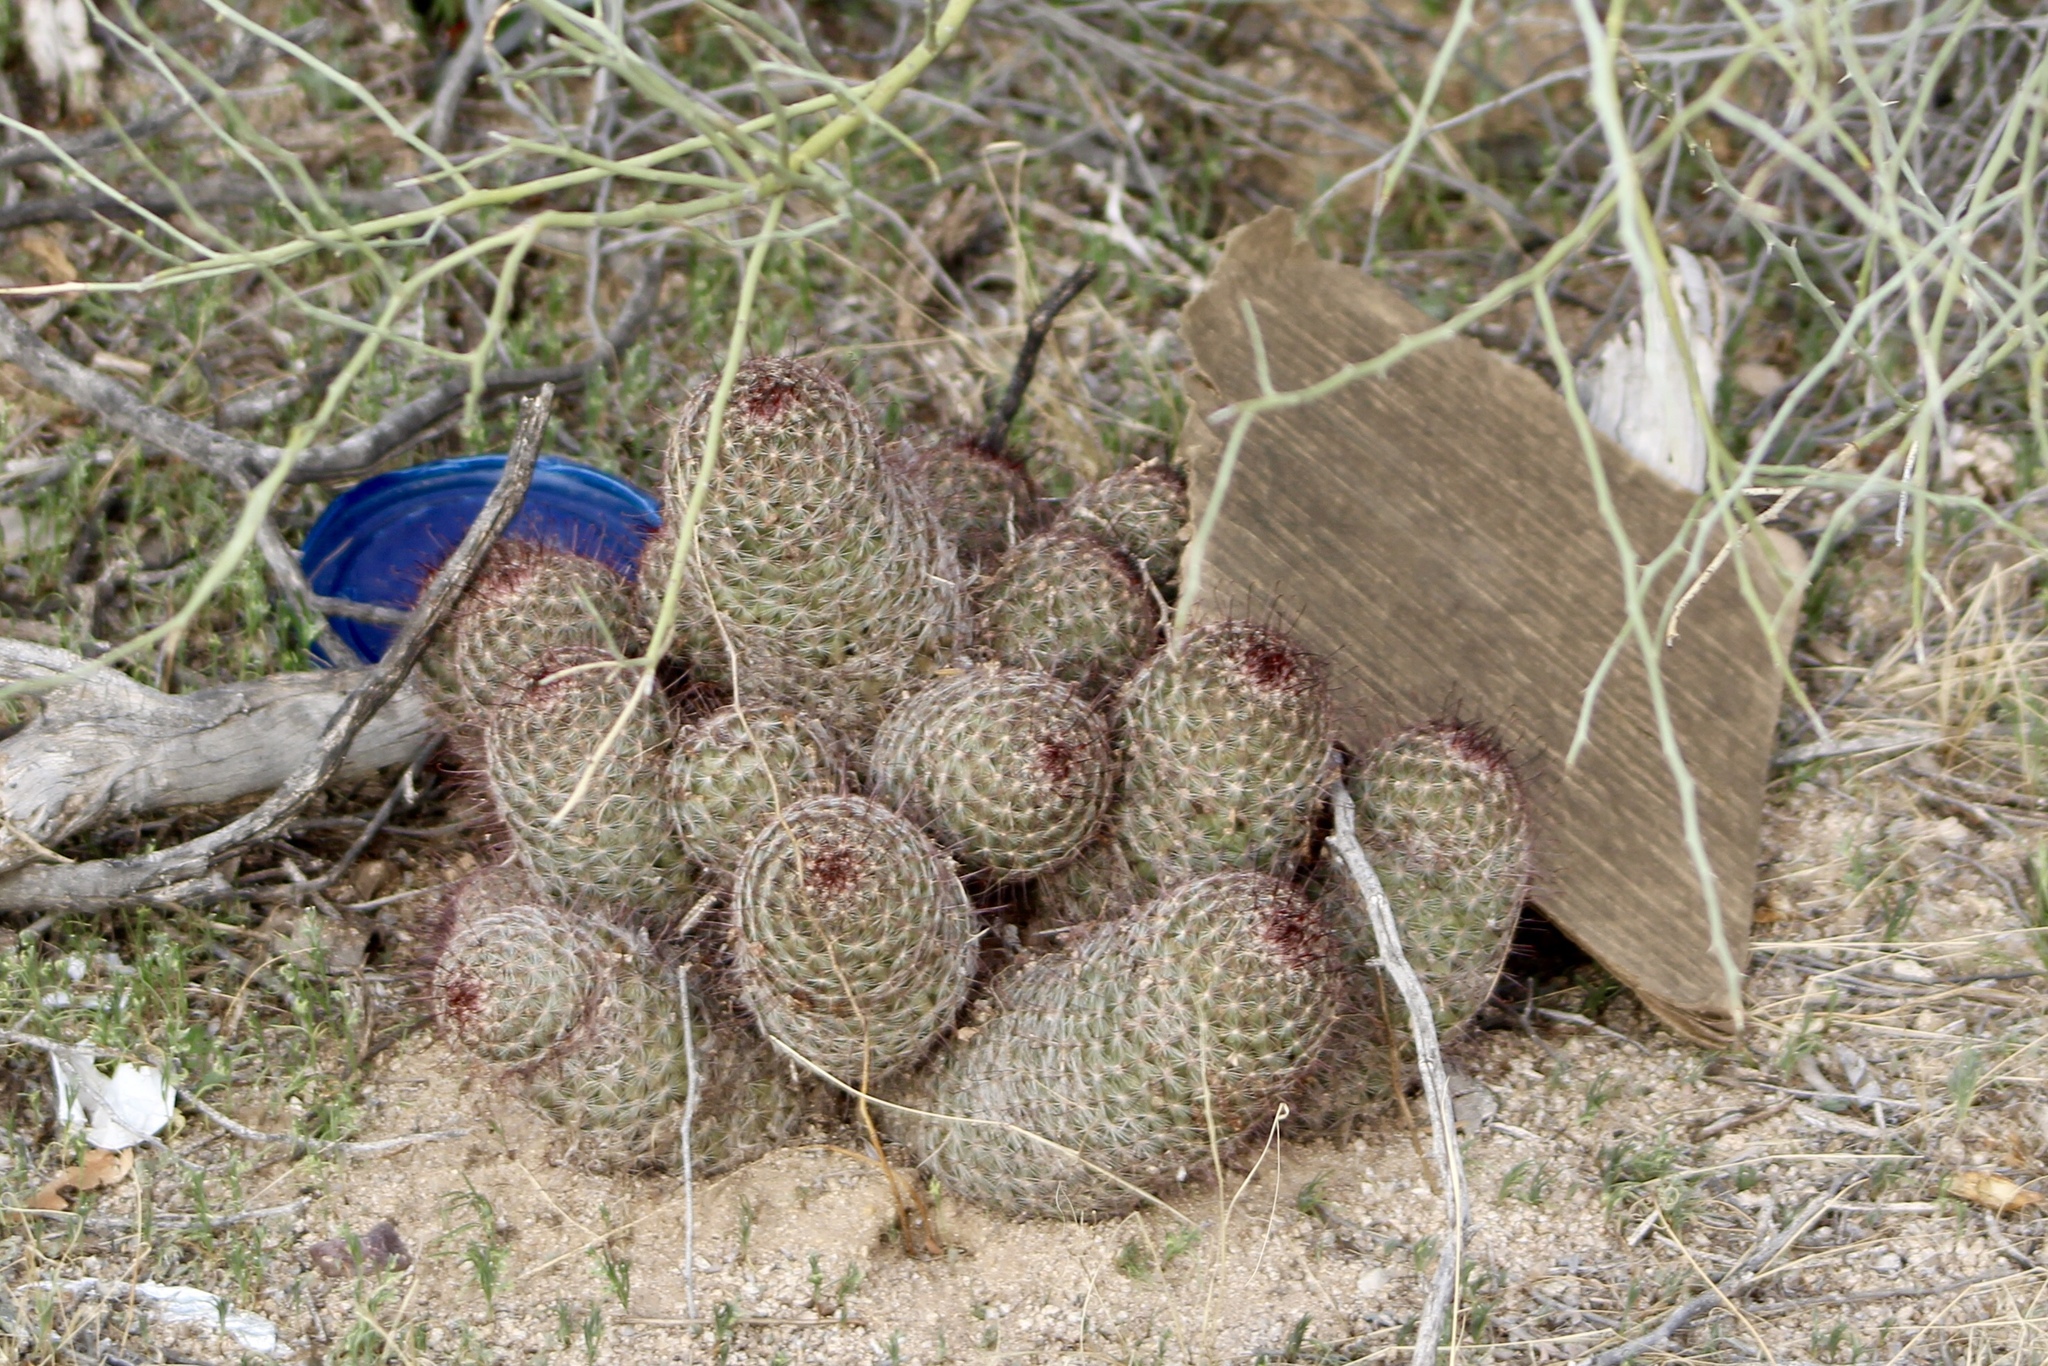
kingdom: Plantae
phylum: Tracheophyta
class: Magnoliopsida
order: Caryophyllales
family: Cactaceae
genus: Cochemiea
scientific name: Cochemiea grahamii
